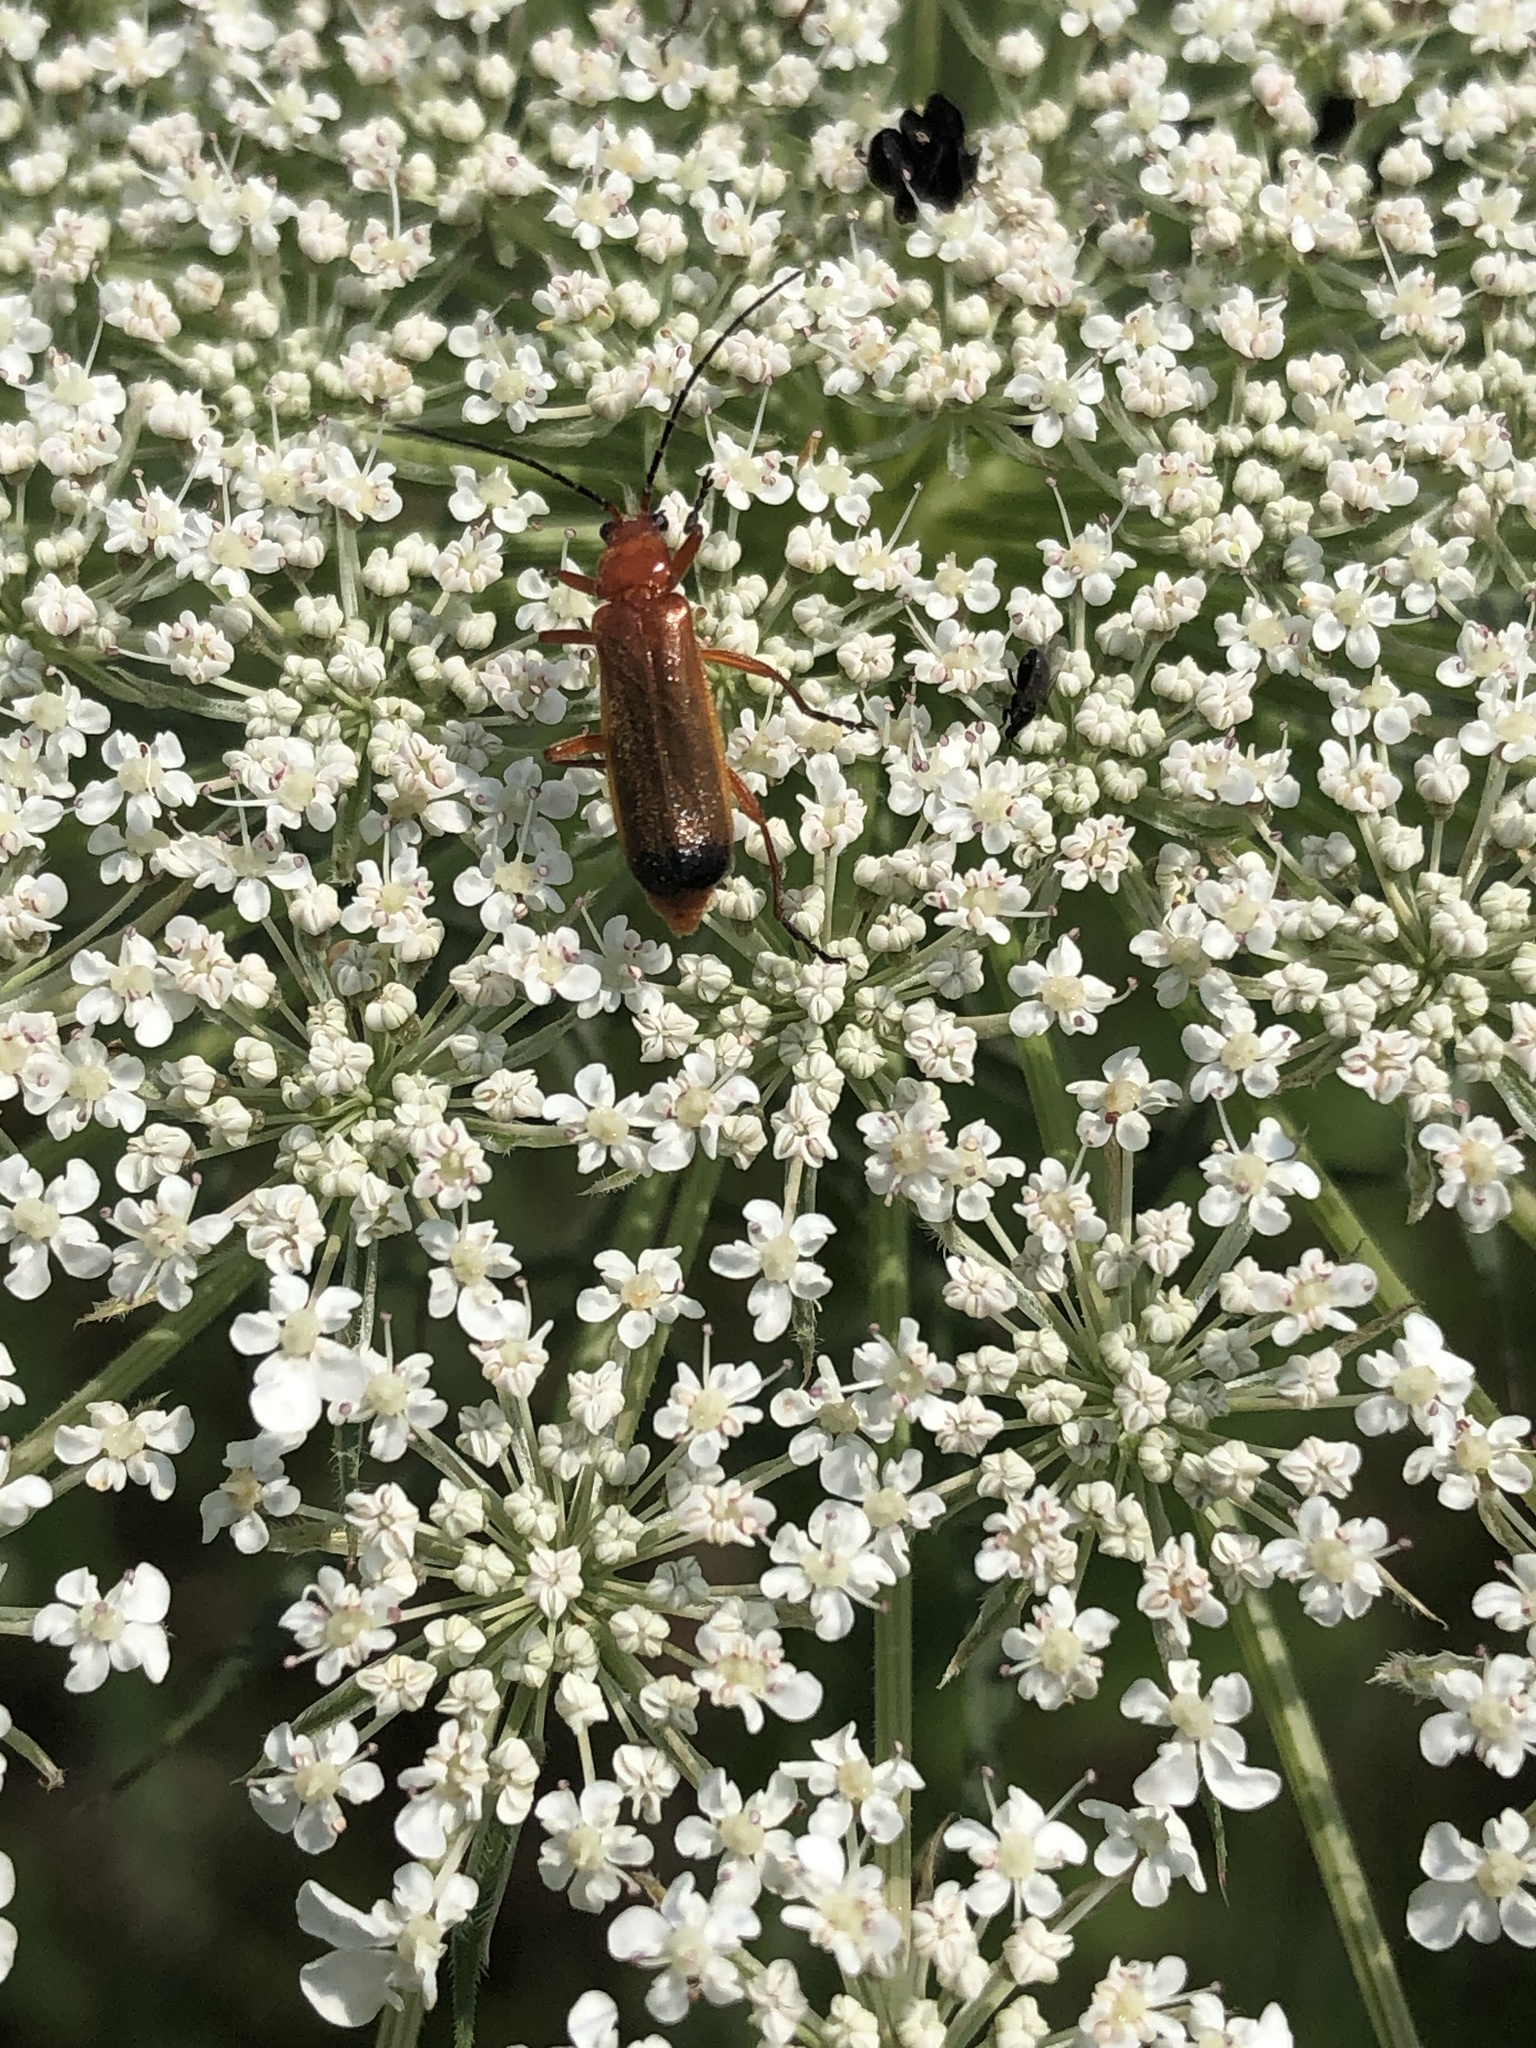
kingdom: Animalia
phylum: Arthropoda
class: Insecta
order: Coleoptera
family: Cantharidae
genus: Rhagonycha
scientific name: Rhagonycha fulva
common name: Common red soldier beetle
